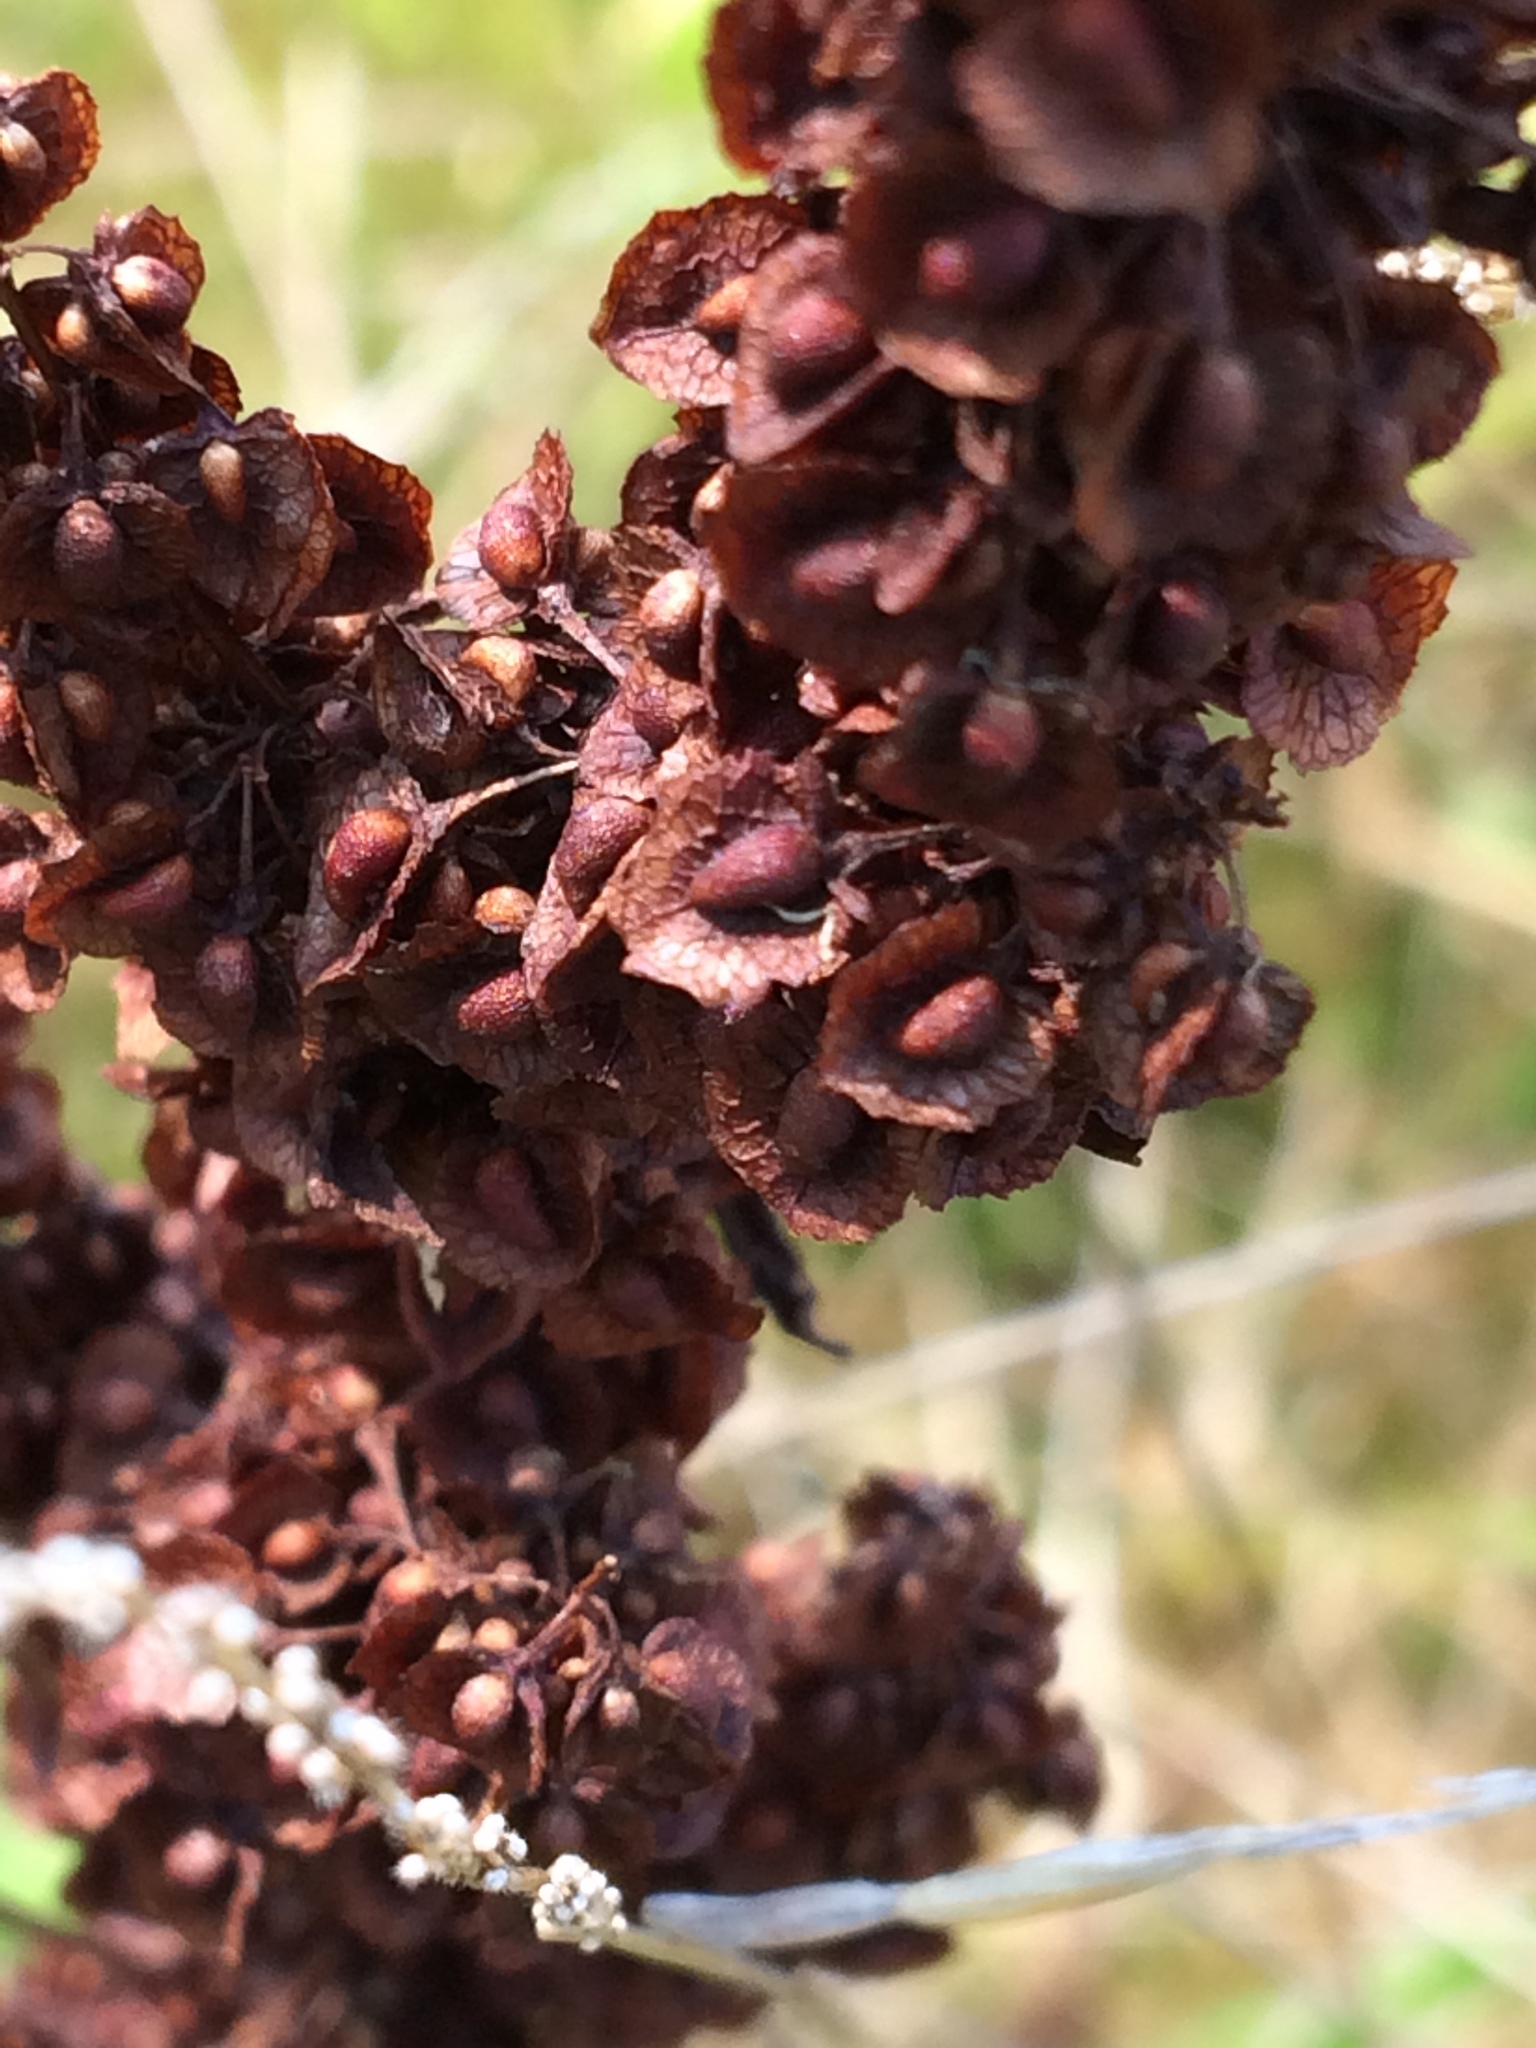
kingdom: Plantae
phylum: Tracheophyta
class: Magnoliopsida
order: Caryophyllales
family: Polygonaceae
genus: Rumex
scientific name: Rumex crispus
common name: Curled dock
